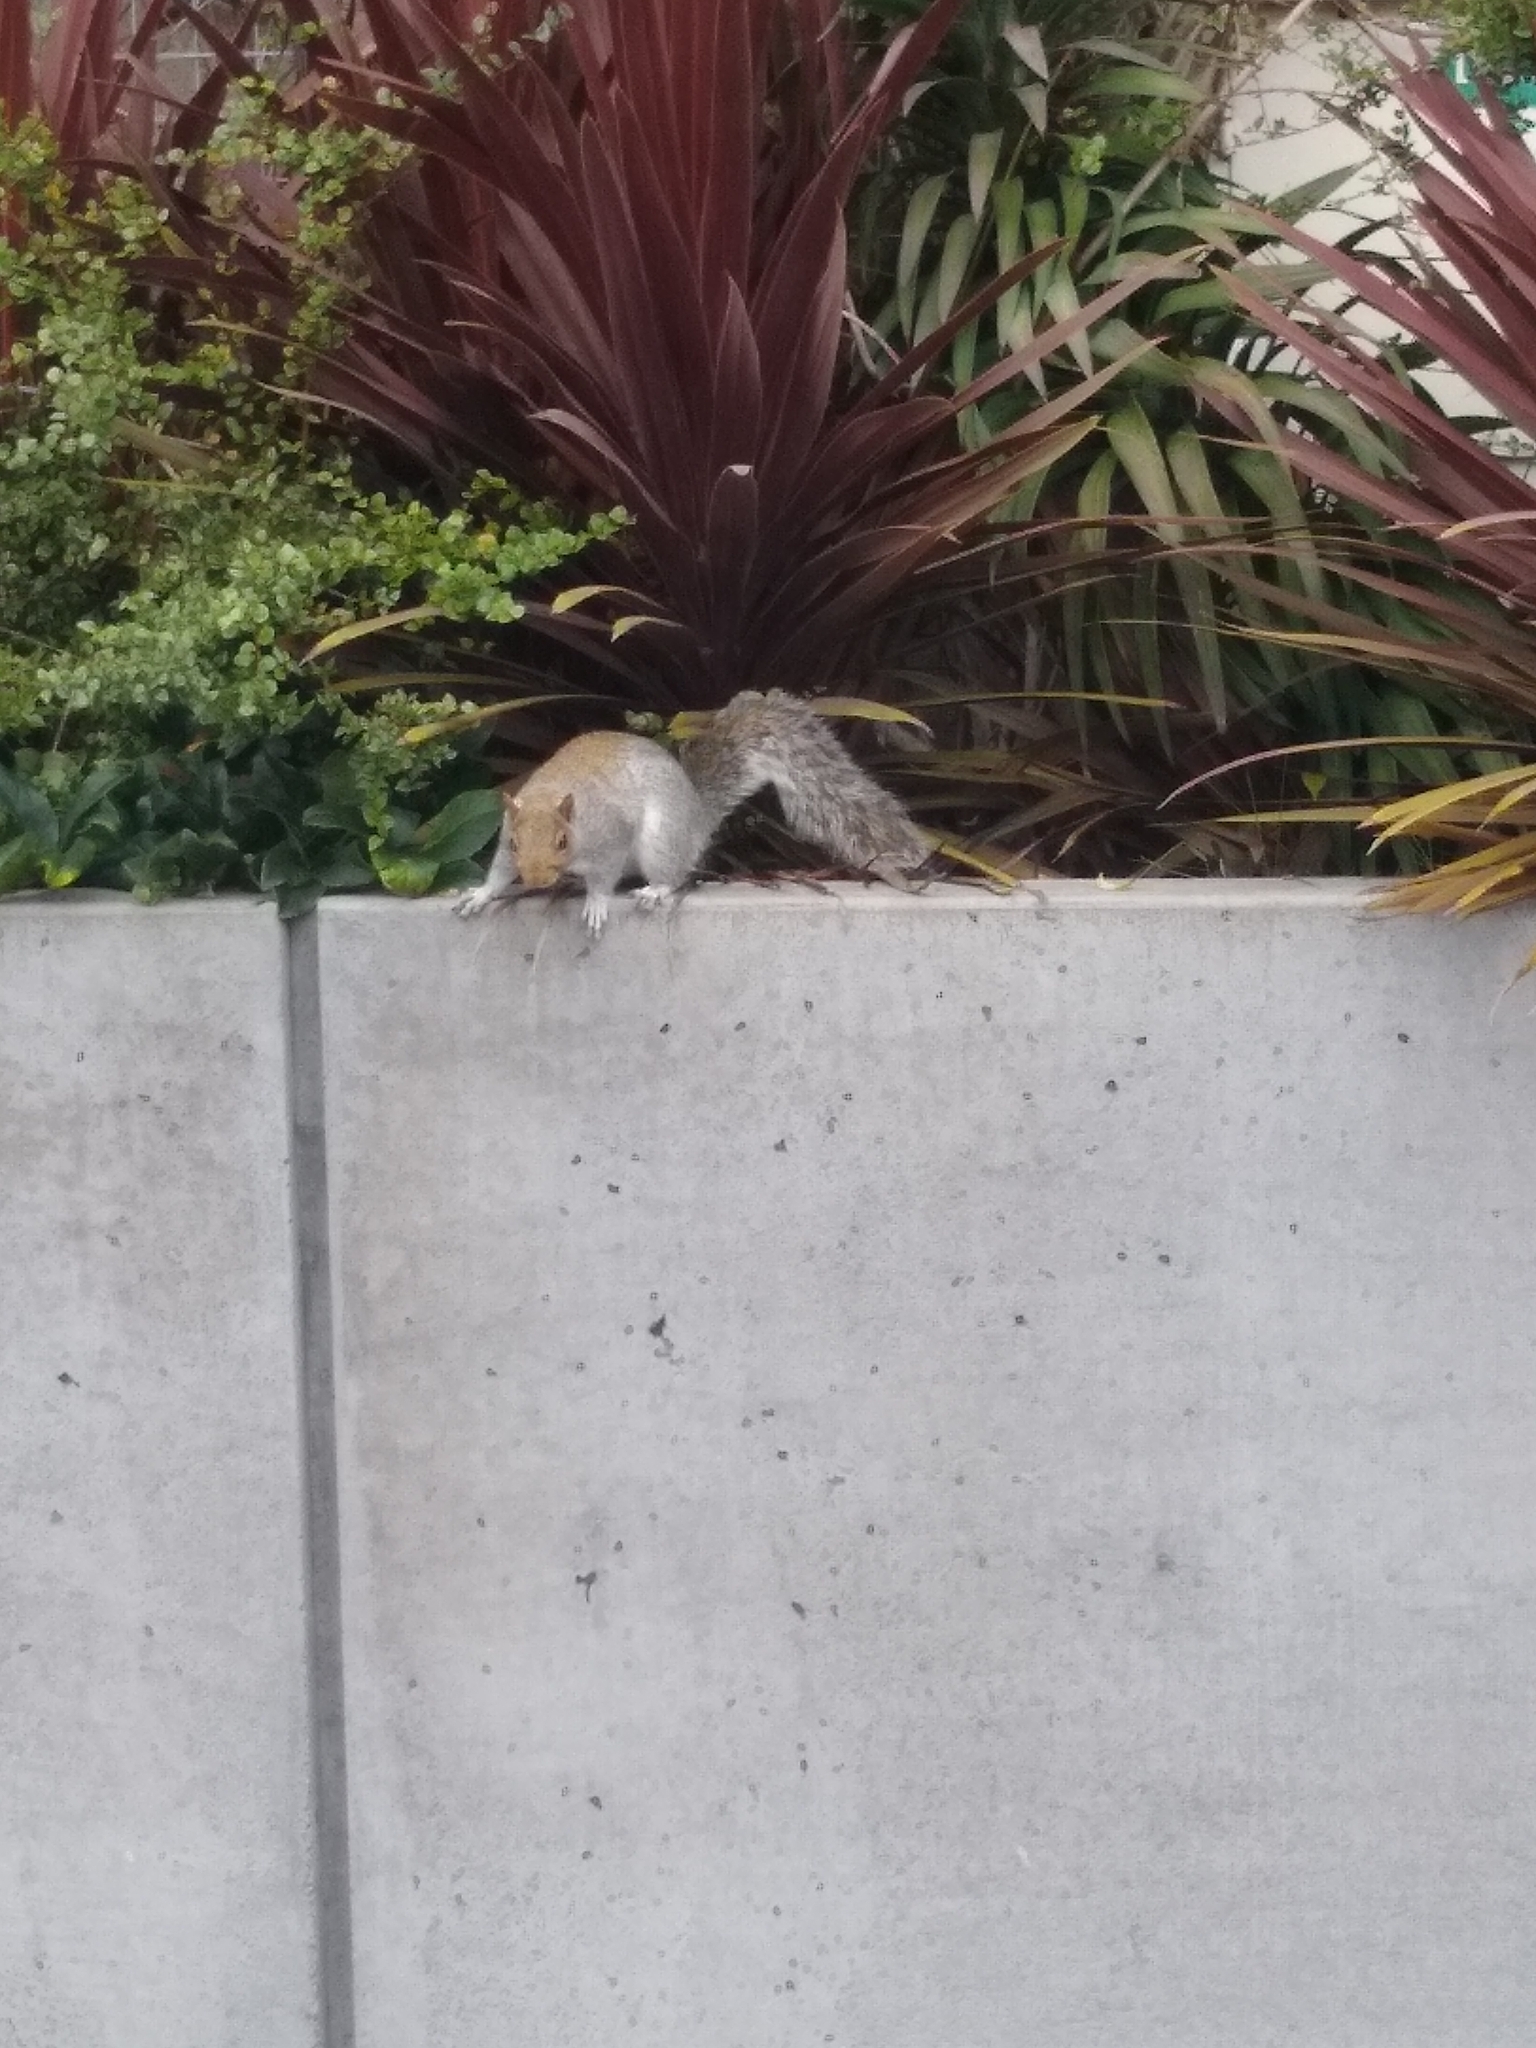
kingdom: Animalia
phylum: Chordata
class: Mammalia
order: Rodentia
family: Sciuridae
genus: Sciurus
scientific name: Sciurus carolinensis
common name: Eastern gray squirrel
